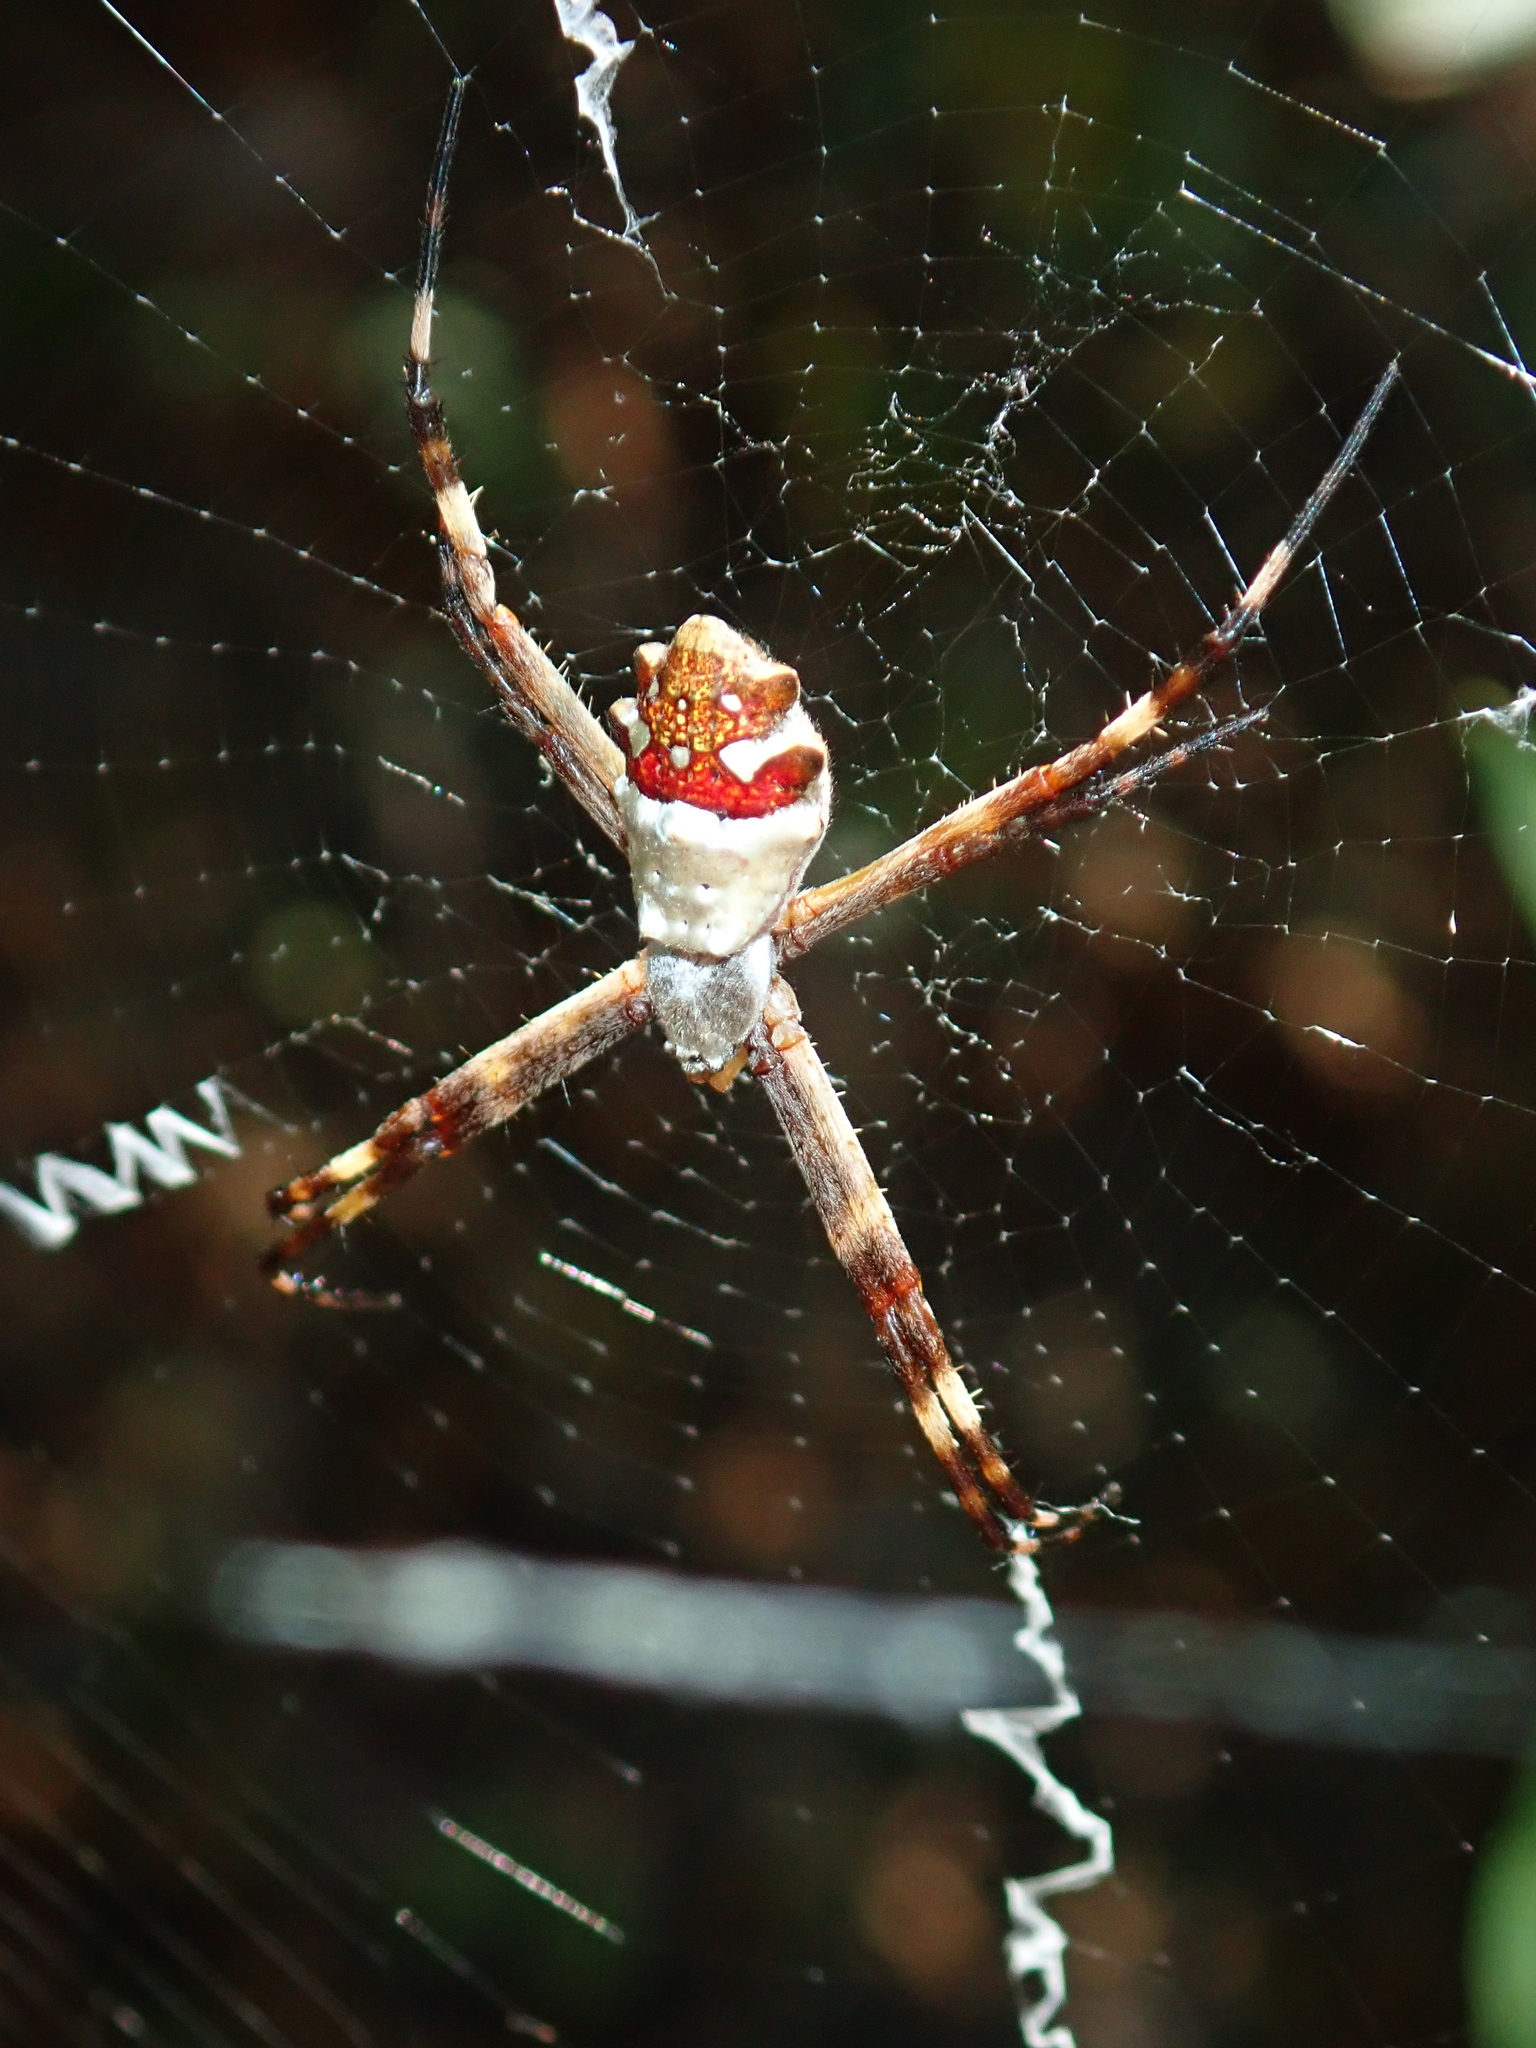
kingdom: Animalia
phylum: Arthropoda
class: Arachnida
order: Araneae
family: Araneidae
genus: Argiope
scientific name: Argiope argentata
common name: Orb weavers
